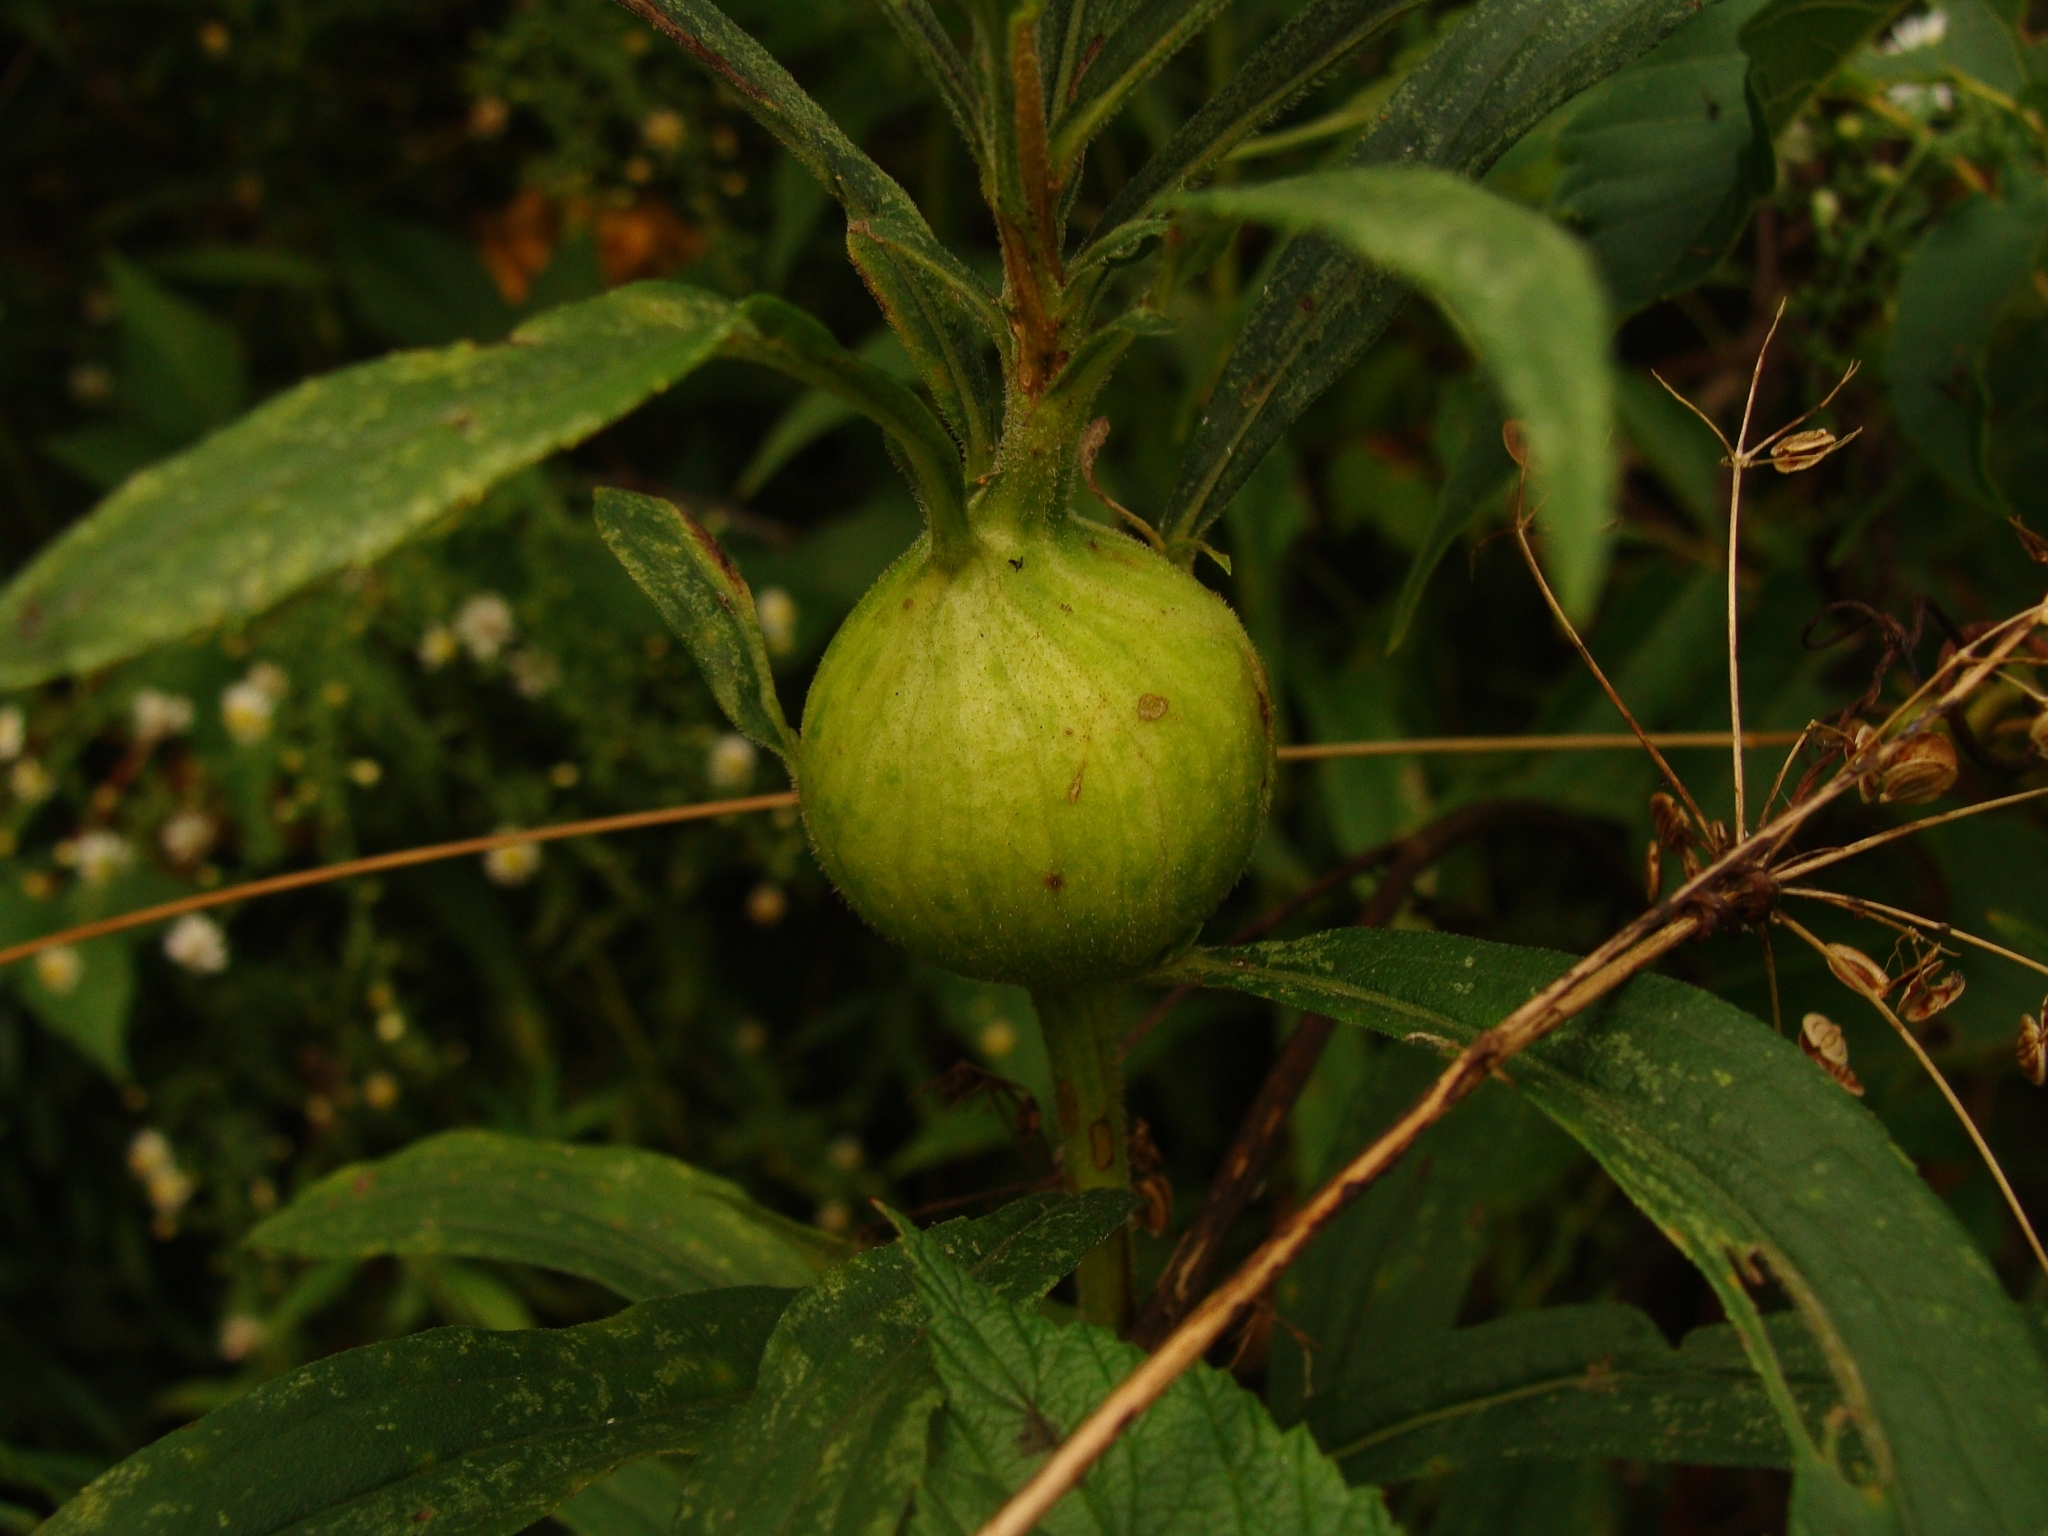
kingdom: Animalia
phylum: Arthropoda
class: Insecta
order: Diptera
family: Tephritidae
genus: Eurosta
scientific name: Eurosta solidaginis
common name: Goldenrod gall fly
